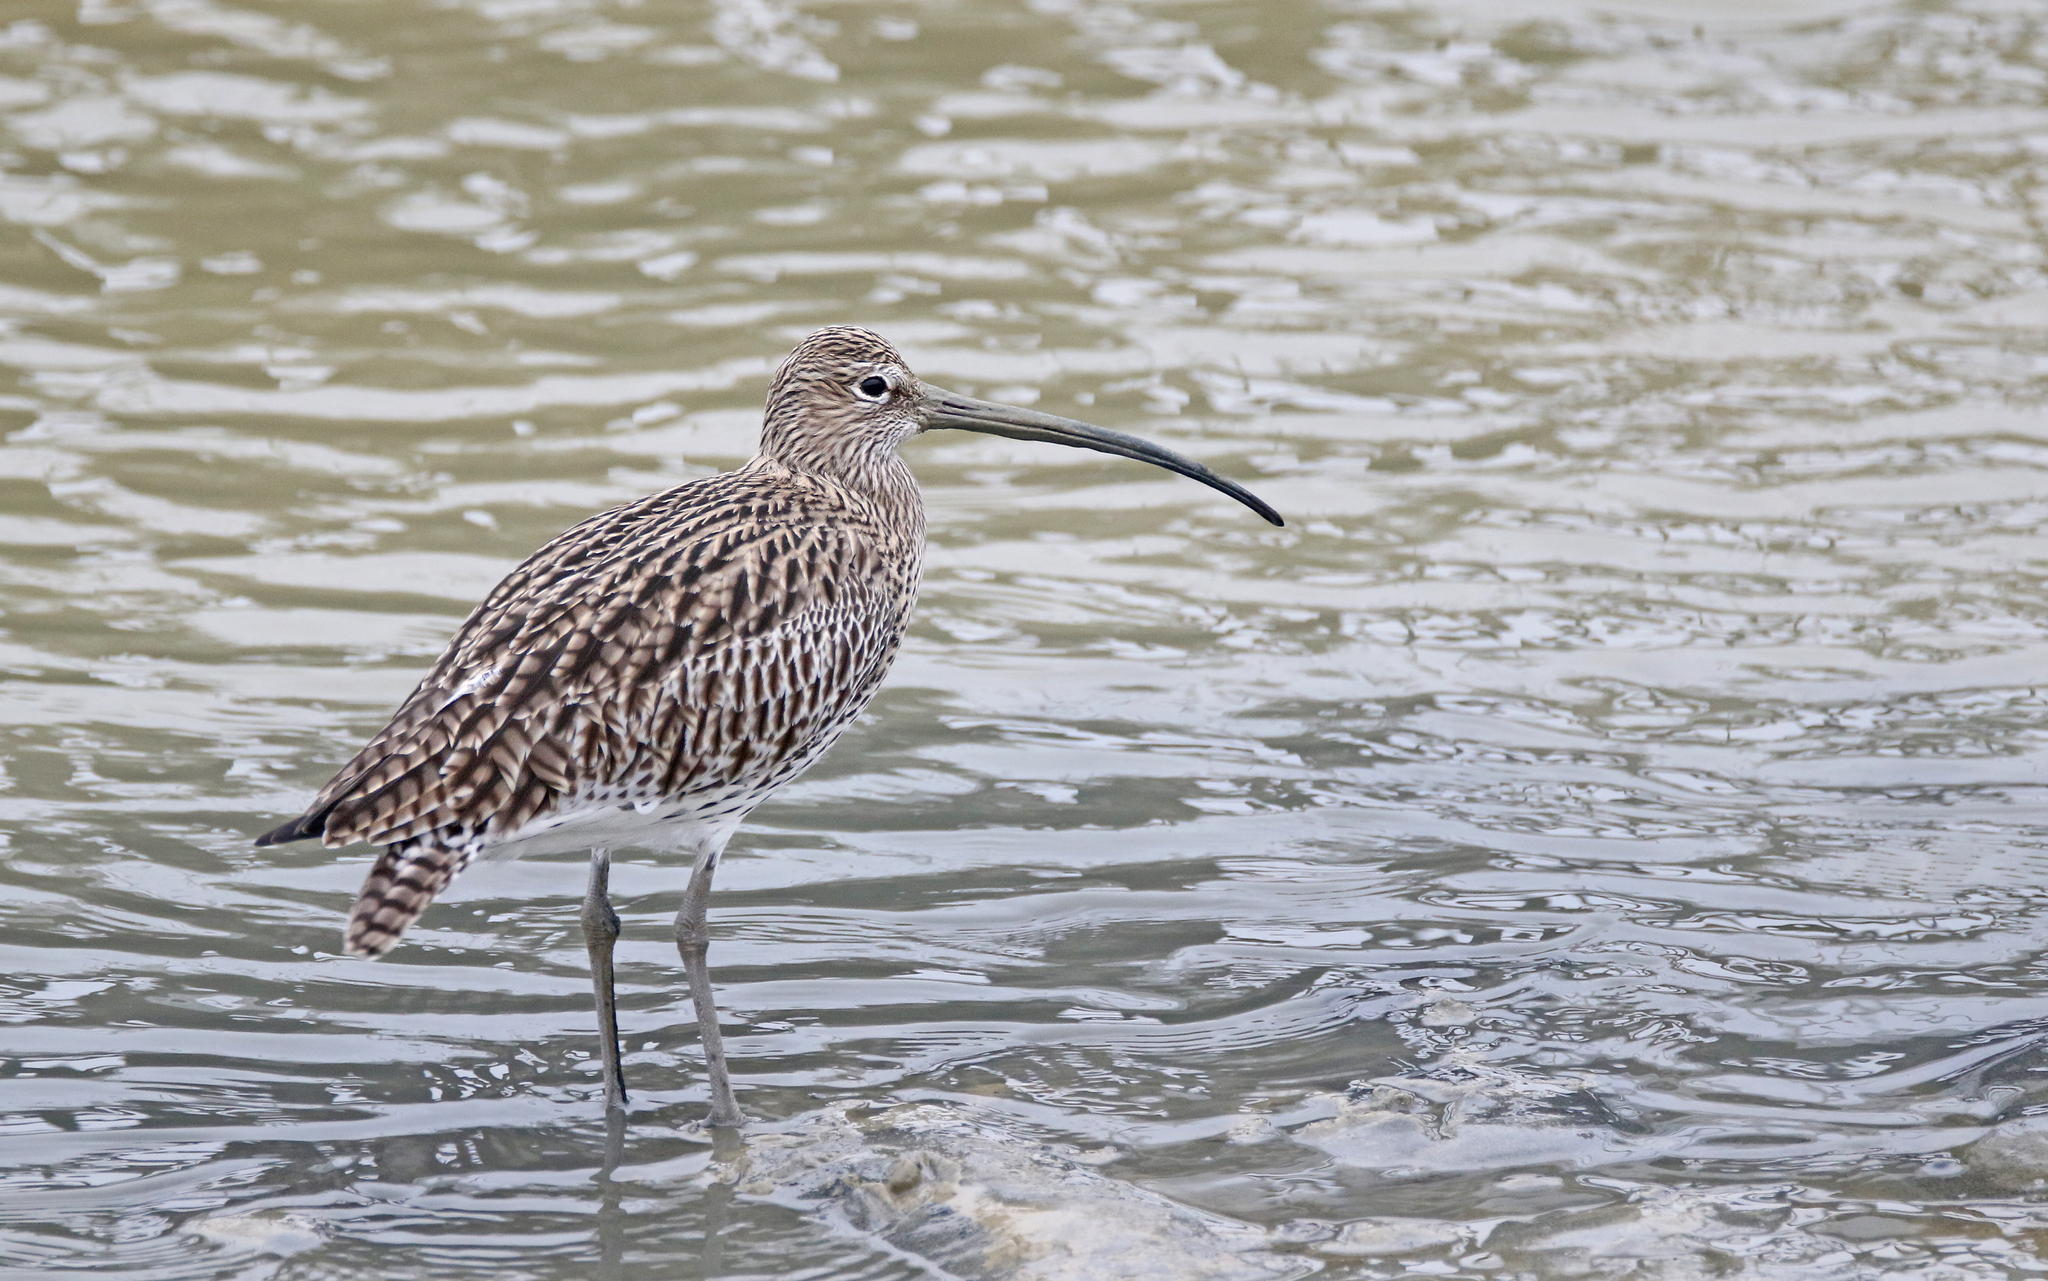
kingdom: Animalia
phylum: Chordata
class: Aves
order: Charadriiformes
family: Scolopacidae
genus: Numenius
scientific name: Numenius arquata
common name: Eurasian curlew
